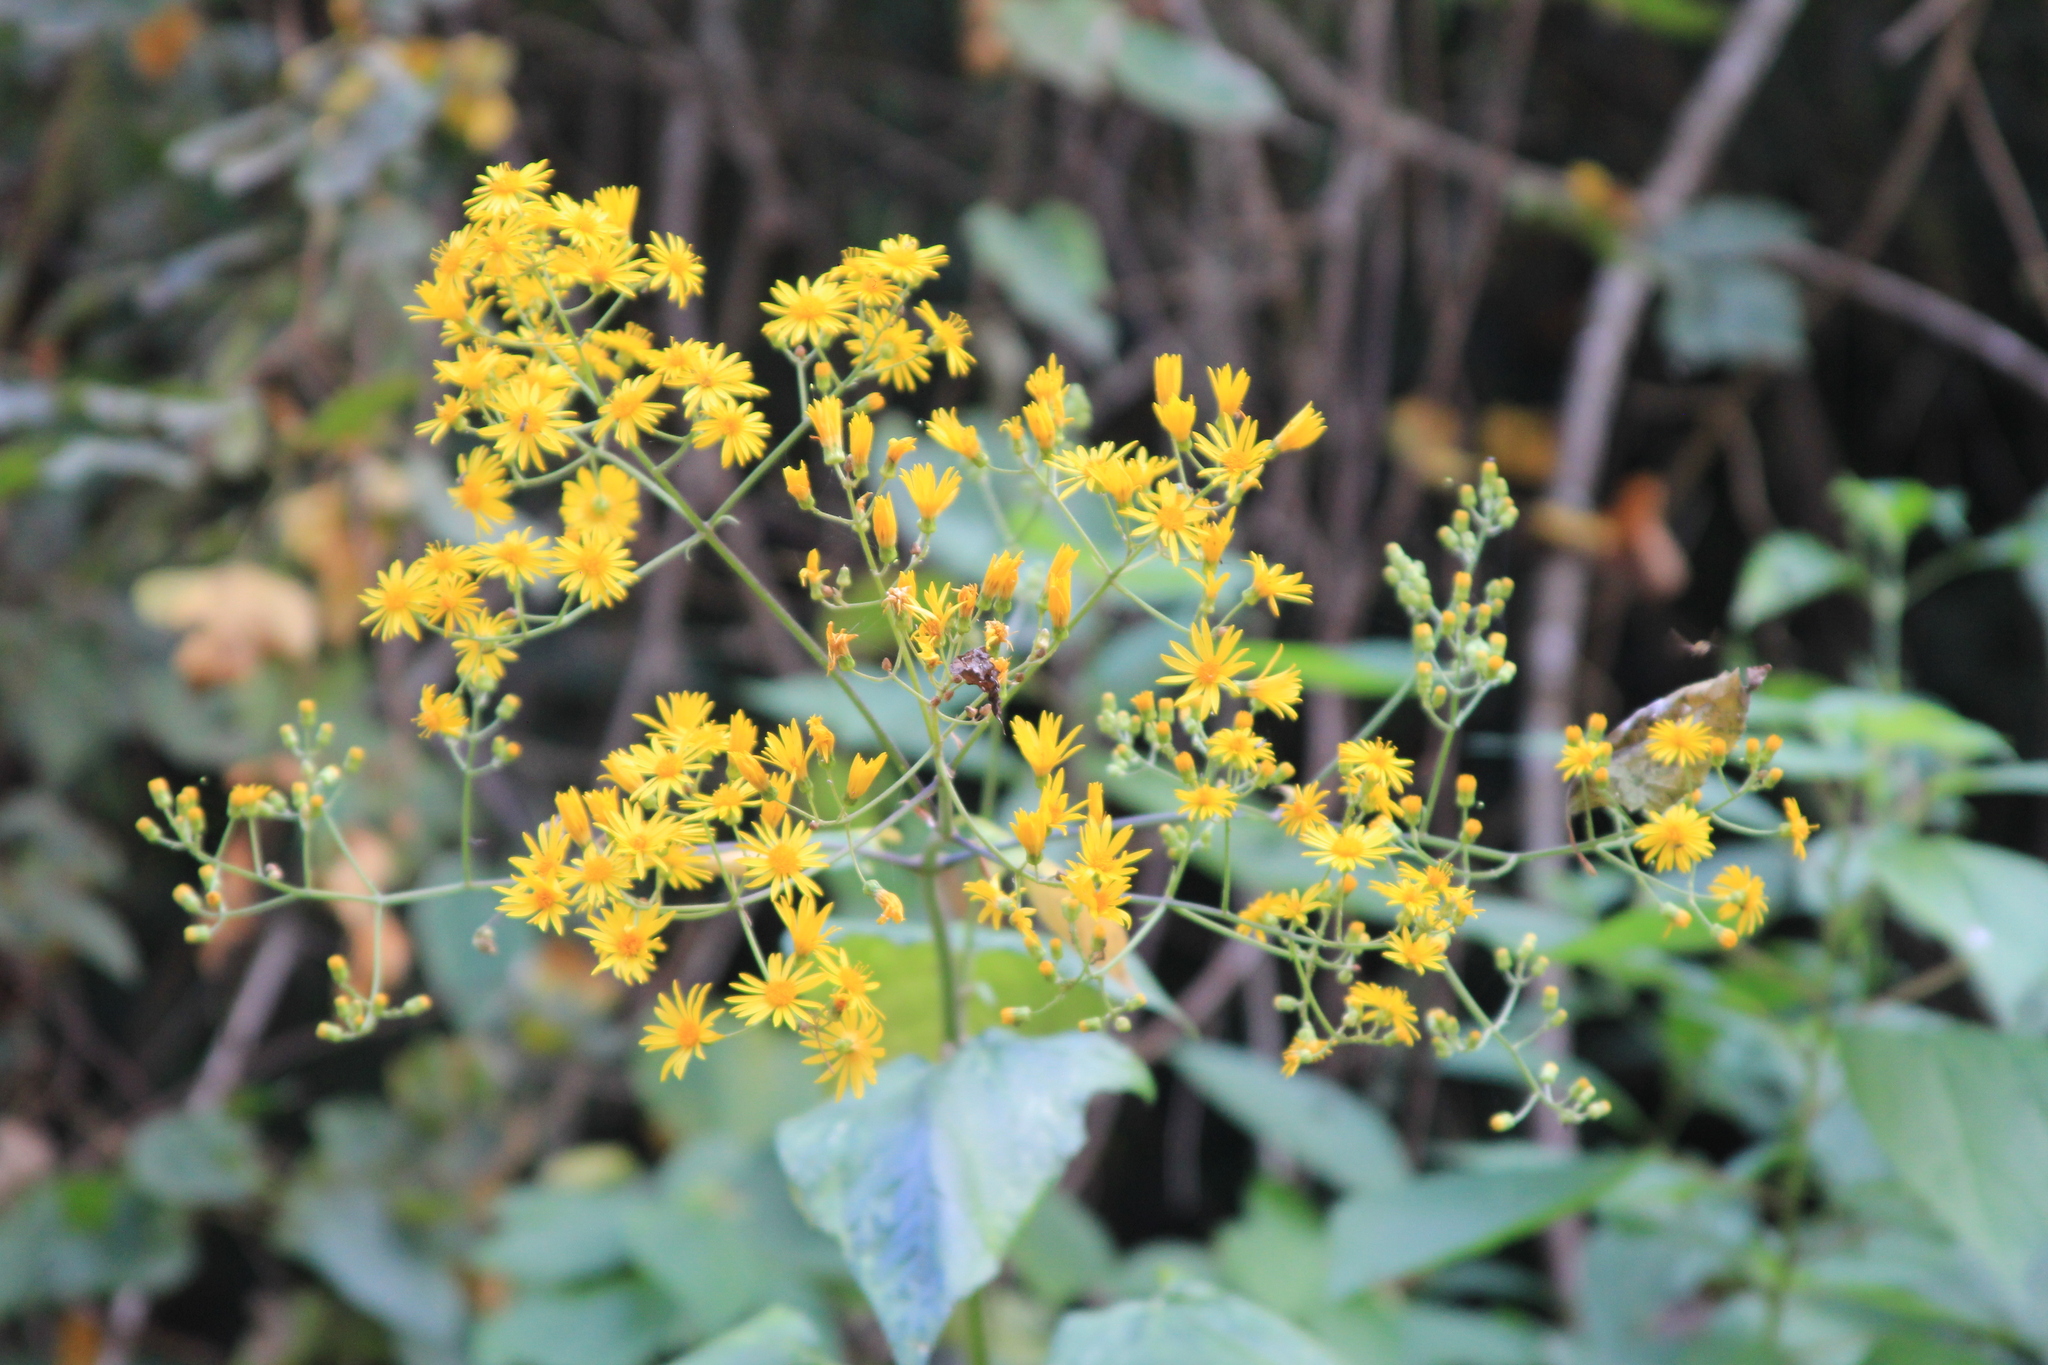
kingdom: Plantae
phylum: Tracheophyta
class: Magnoliopsida
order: Asterales
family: Asteraceae
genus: Munnozia
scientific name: Munnozia hastifolia
